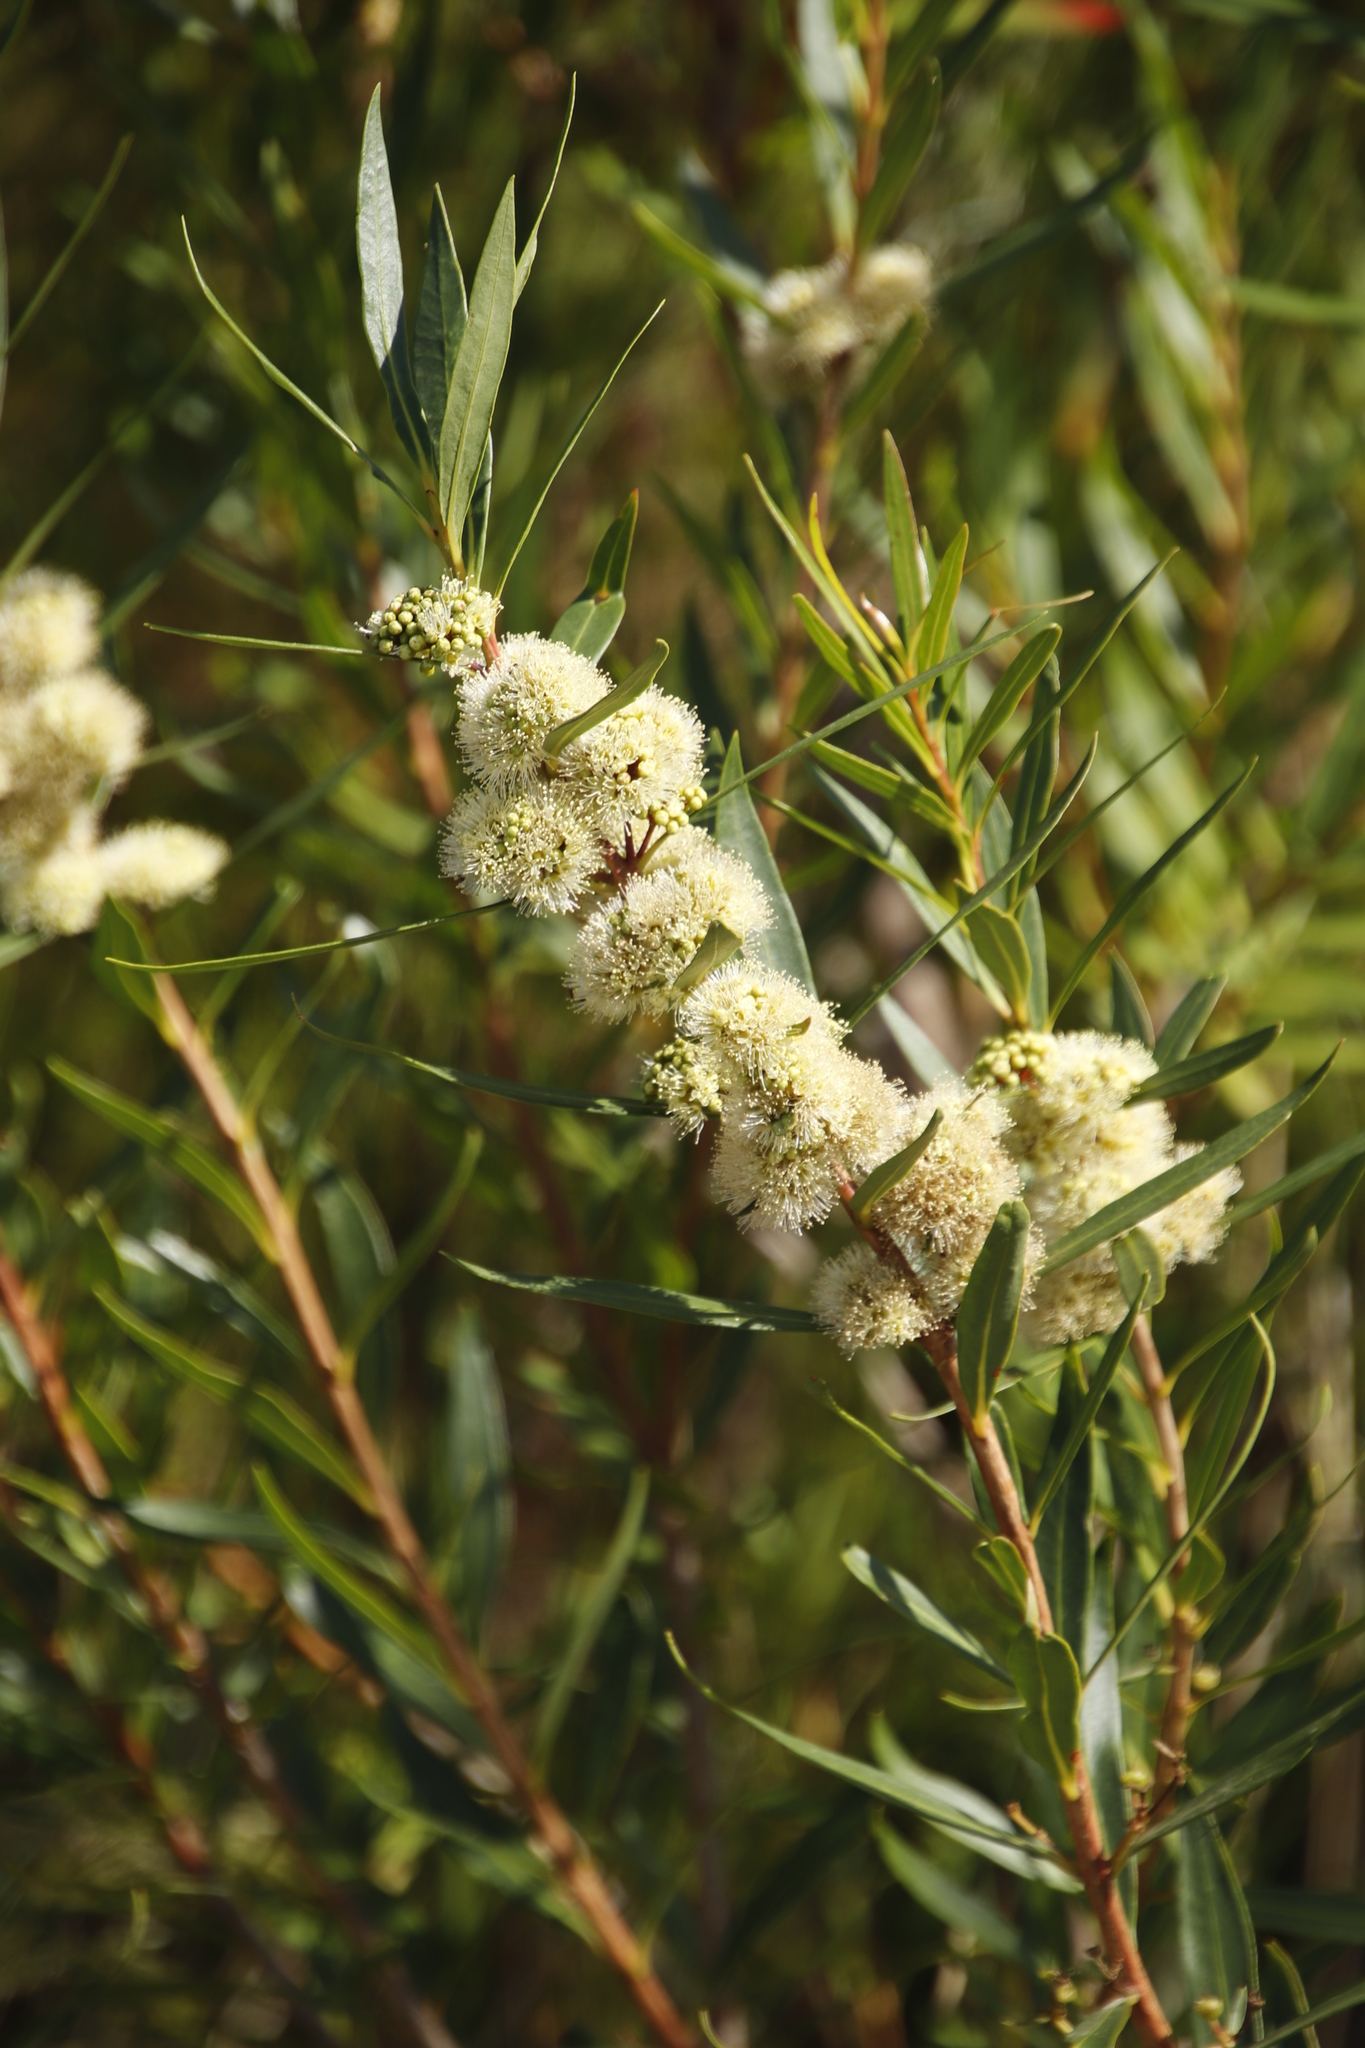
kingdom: Plantae
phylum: Tracheophyta
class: Magnoliopsida
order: Myrtales
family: Myrtaceae
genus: Callistemon
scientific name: Callistemon lanceolatus
